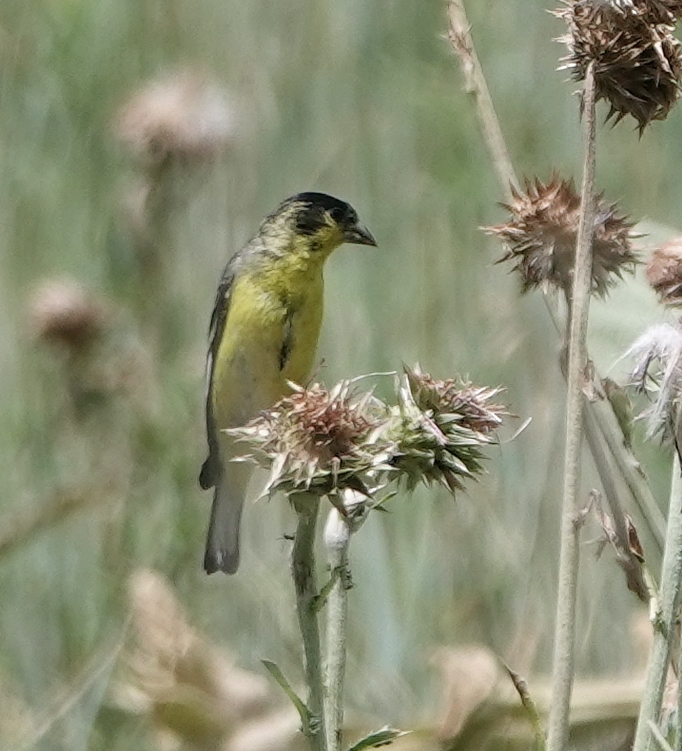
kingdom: Animalia
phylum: Chordata
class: Aves
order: Passeriformes
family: Fringillidae
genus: Spinus
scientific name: Spinus psaltria
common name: Lesser goldfinch
